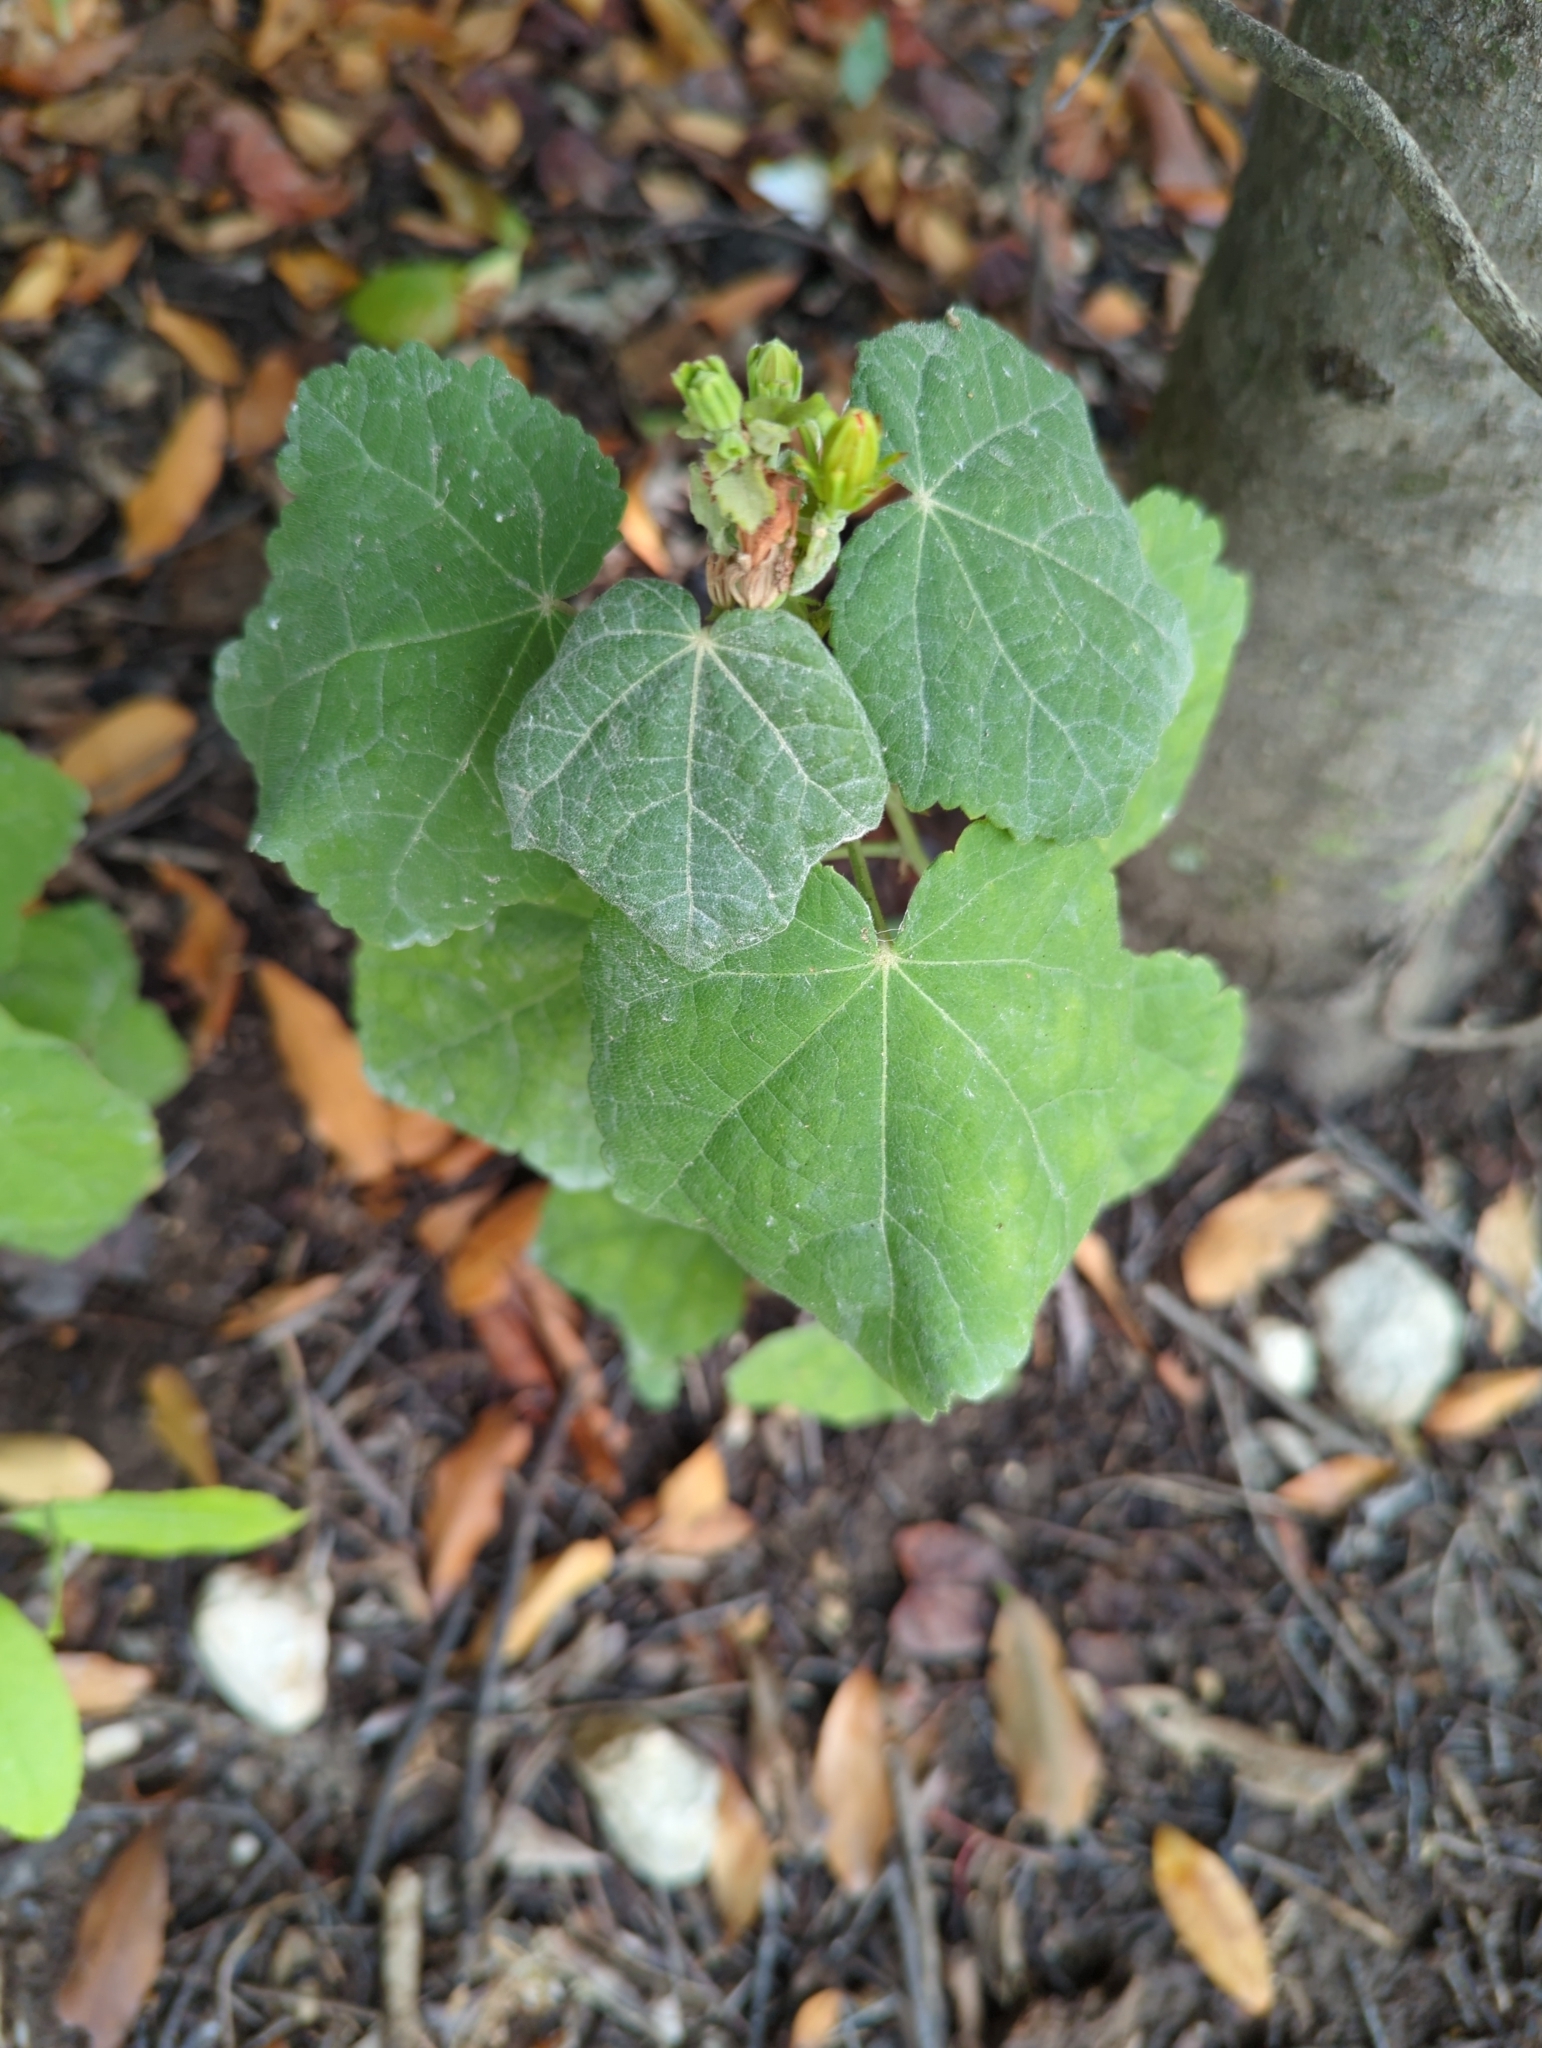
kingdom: Plantae
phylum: Tracheophyta
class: Magnoliopsida
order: Malvales
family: Malvaceae
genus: Malvaviscus
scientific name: Malvaviscus arboreus
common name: Wax mallow
